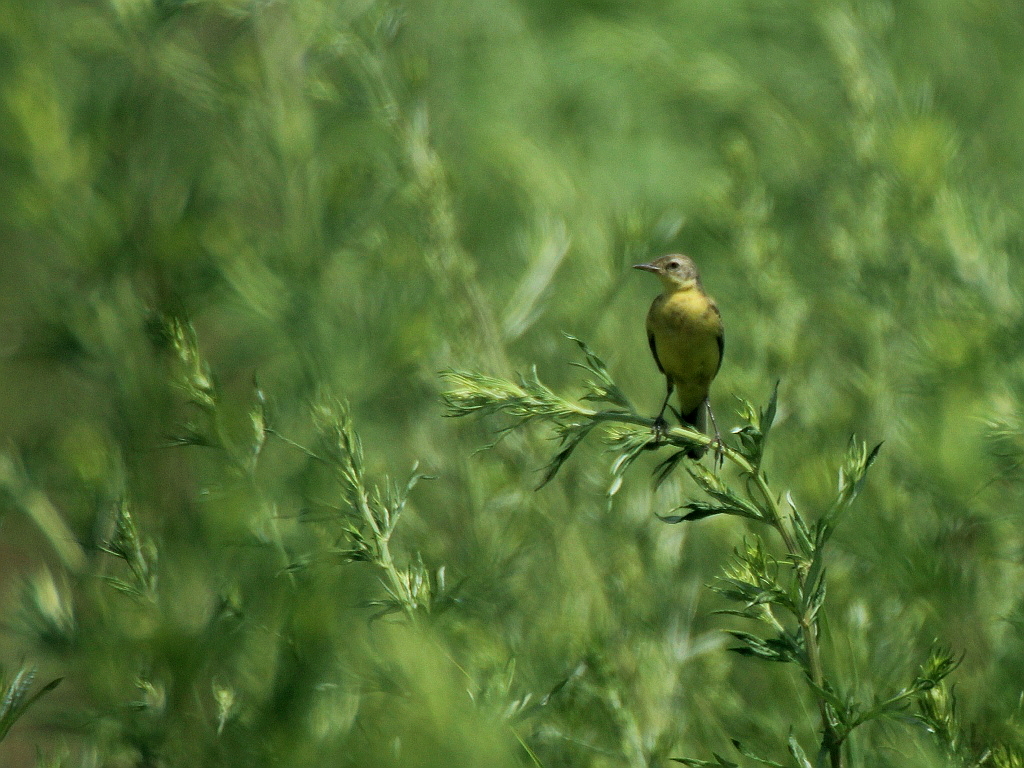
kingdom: Animalia
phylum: Chordata
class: Aves
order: Passeriformes
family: Motacillidae
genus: Motacilla
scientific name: Motacilla flava
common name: Western yellow wagtail
